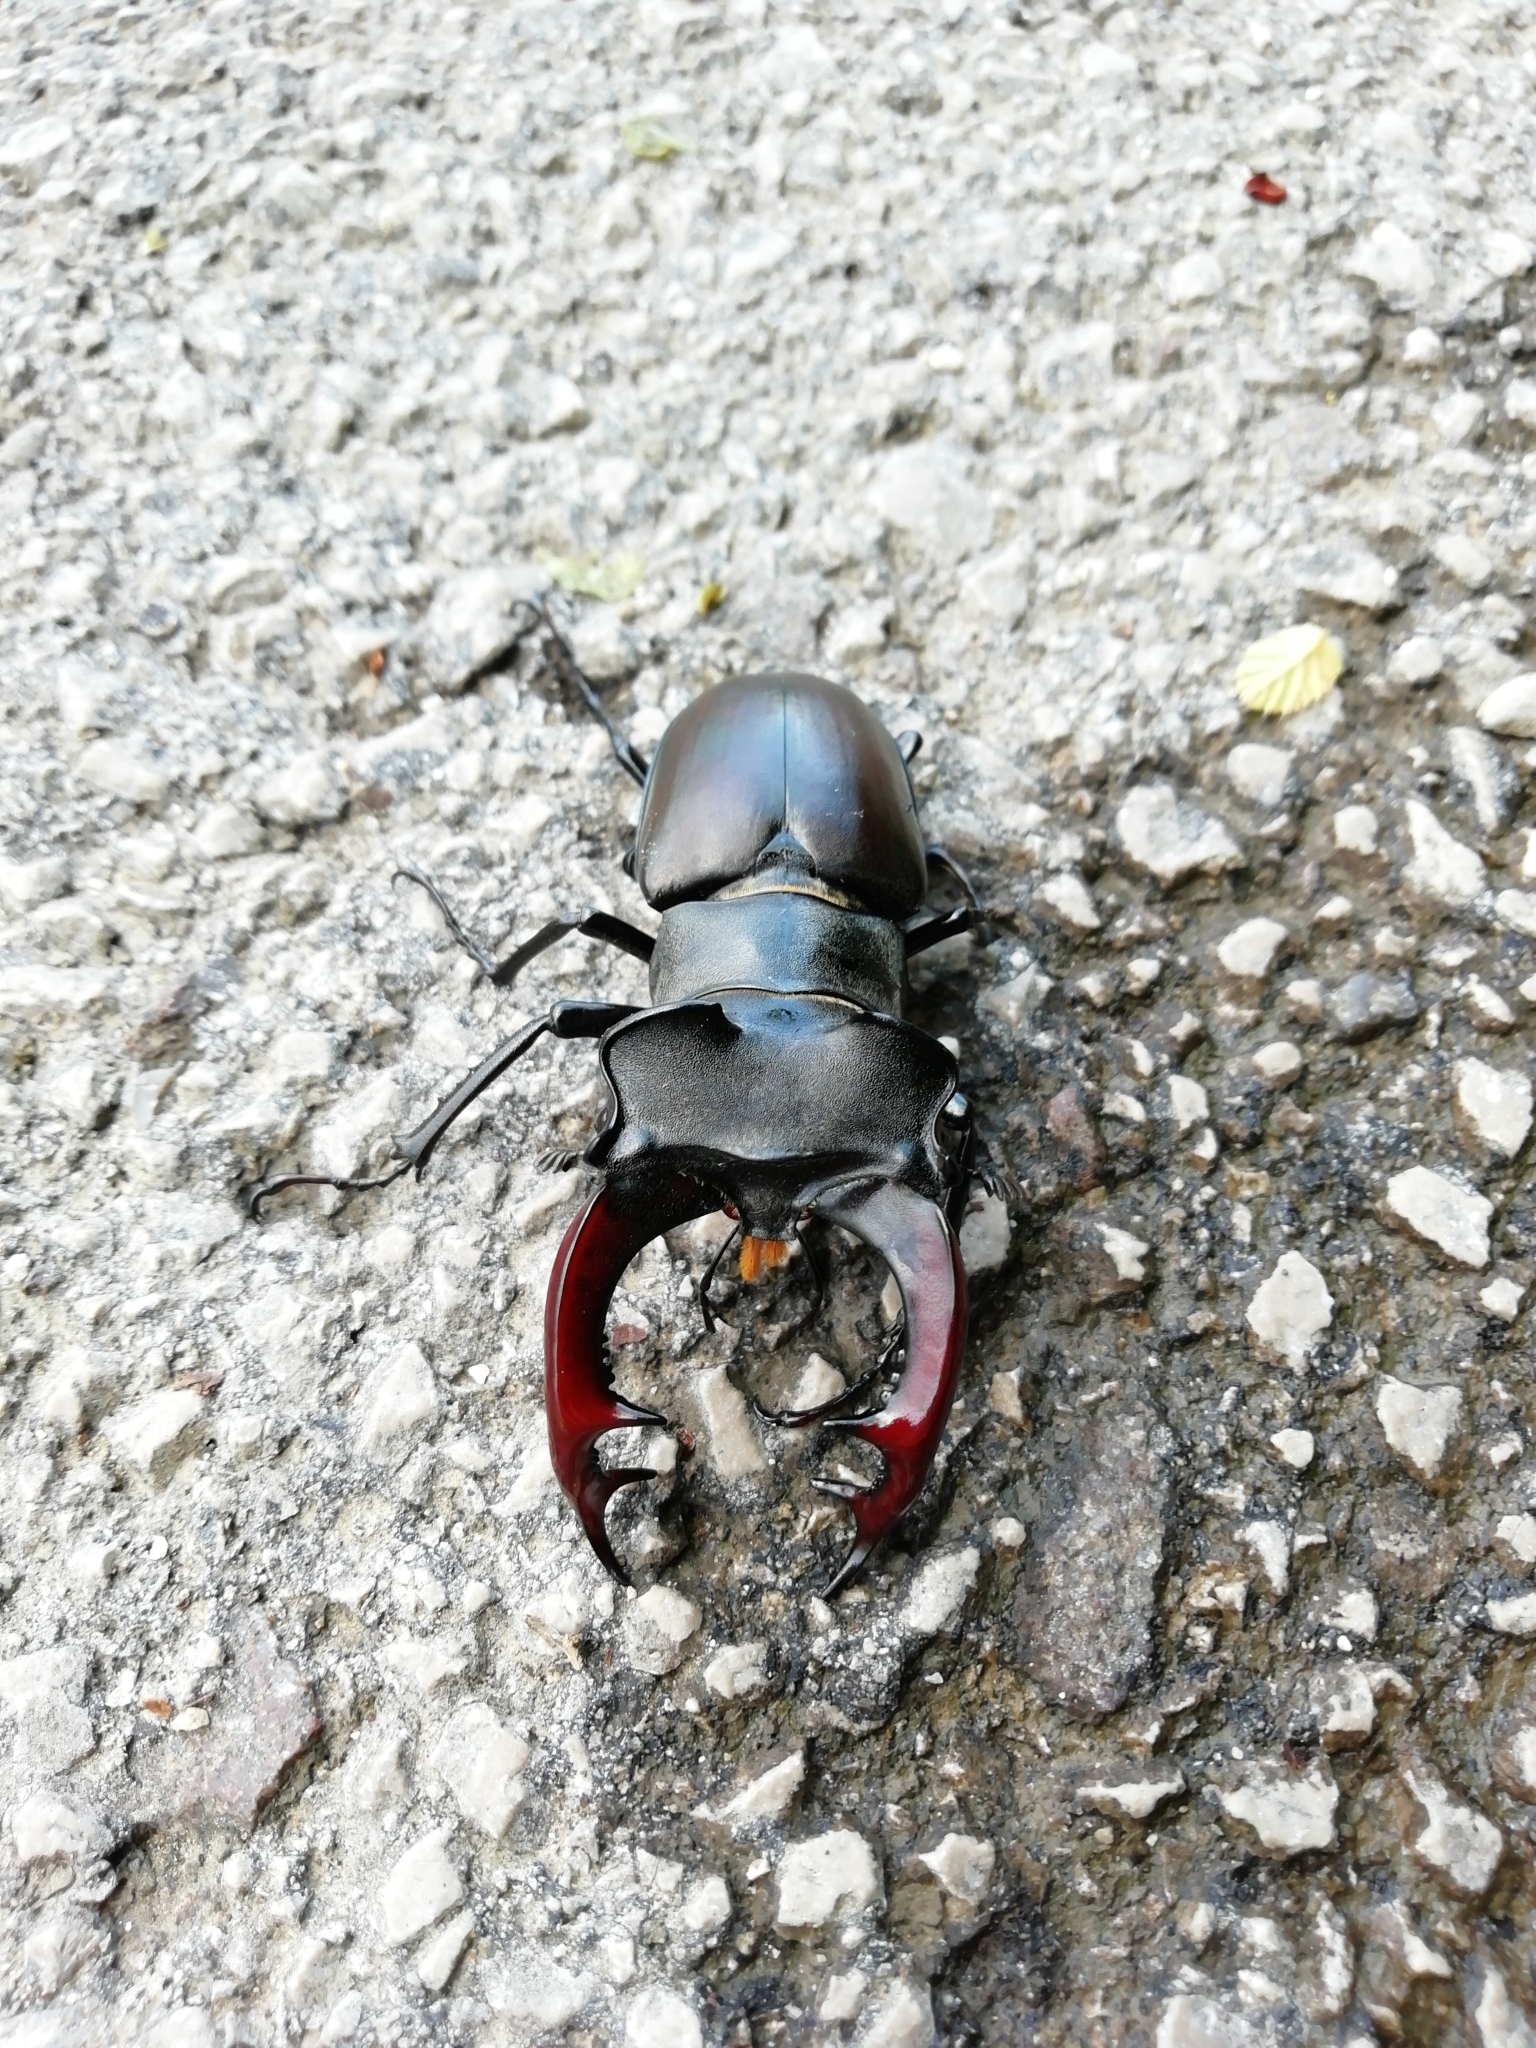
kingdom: Animalia
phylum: Arthropoda
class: Insecta
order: Coleoptera
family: Lucanidae
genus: Lucanus
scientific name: Lucanus cervus
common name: Stag beetle
